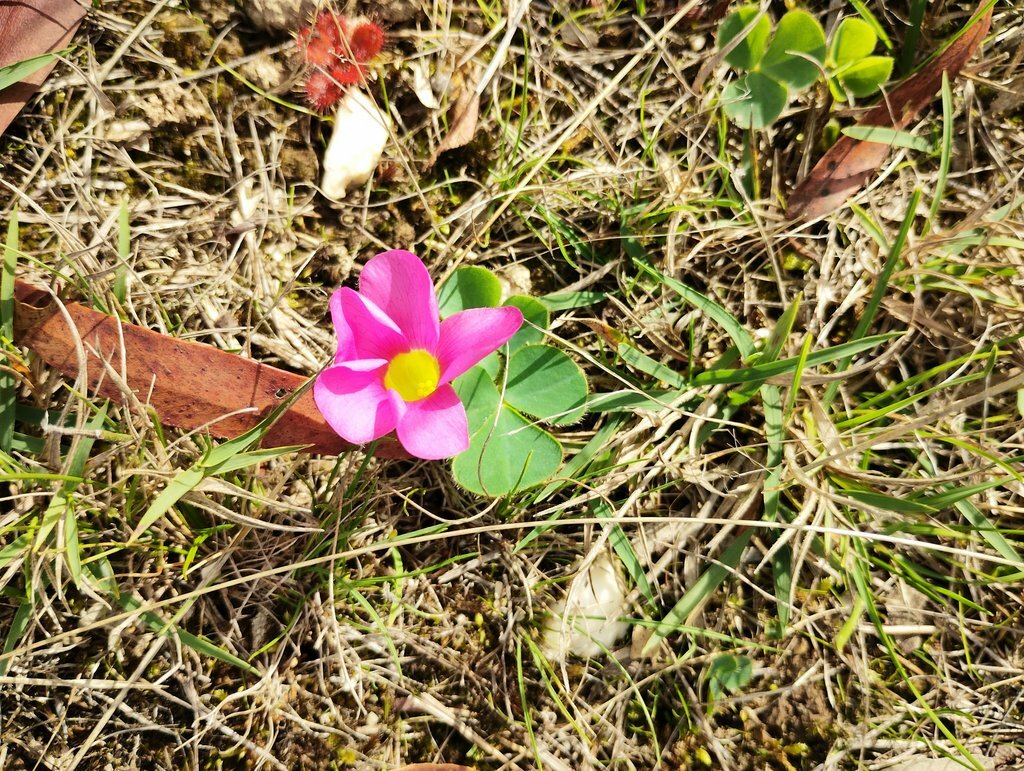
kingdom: Plantae
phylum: Tracheophyta
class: Magnoliopsida
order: Oxalidales
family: Oxalidaceae
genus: Oxalis
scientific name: Oxalis purpurea
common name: Purple woodsorrel
